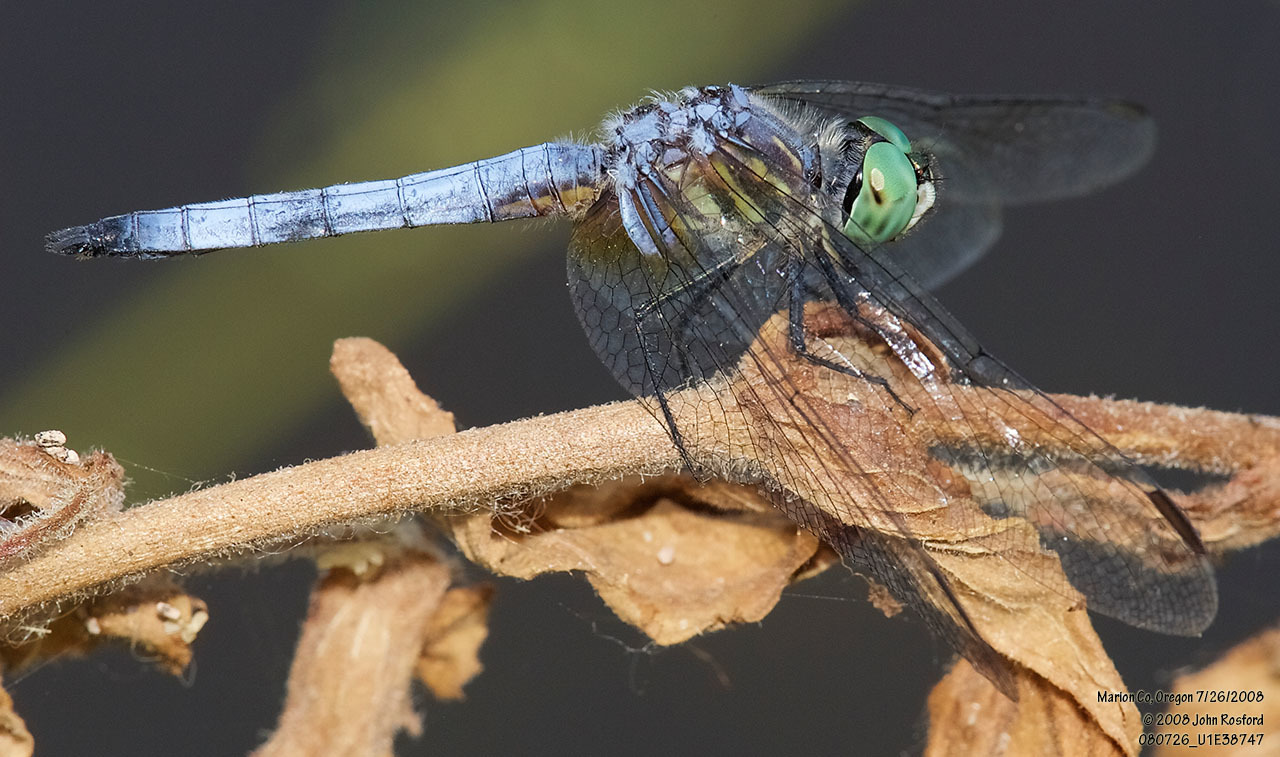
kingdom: Animalia
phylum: Arthropoda
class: Insecta
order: Odonata
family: Libellulidae
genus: Pachydiplax
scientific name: Pachydiplax longipennis
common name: Blue dasher
